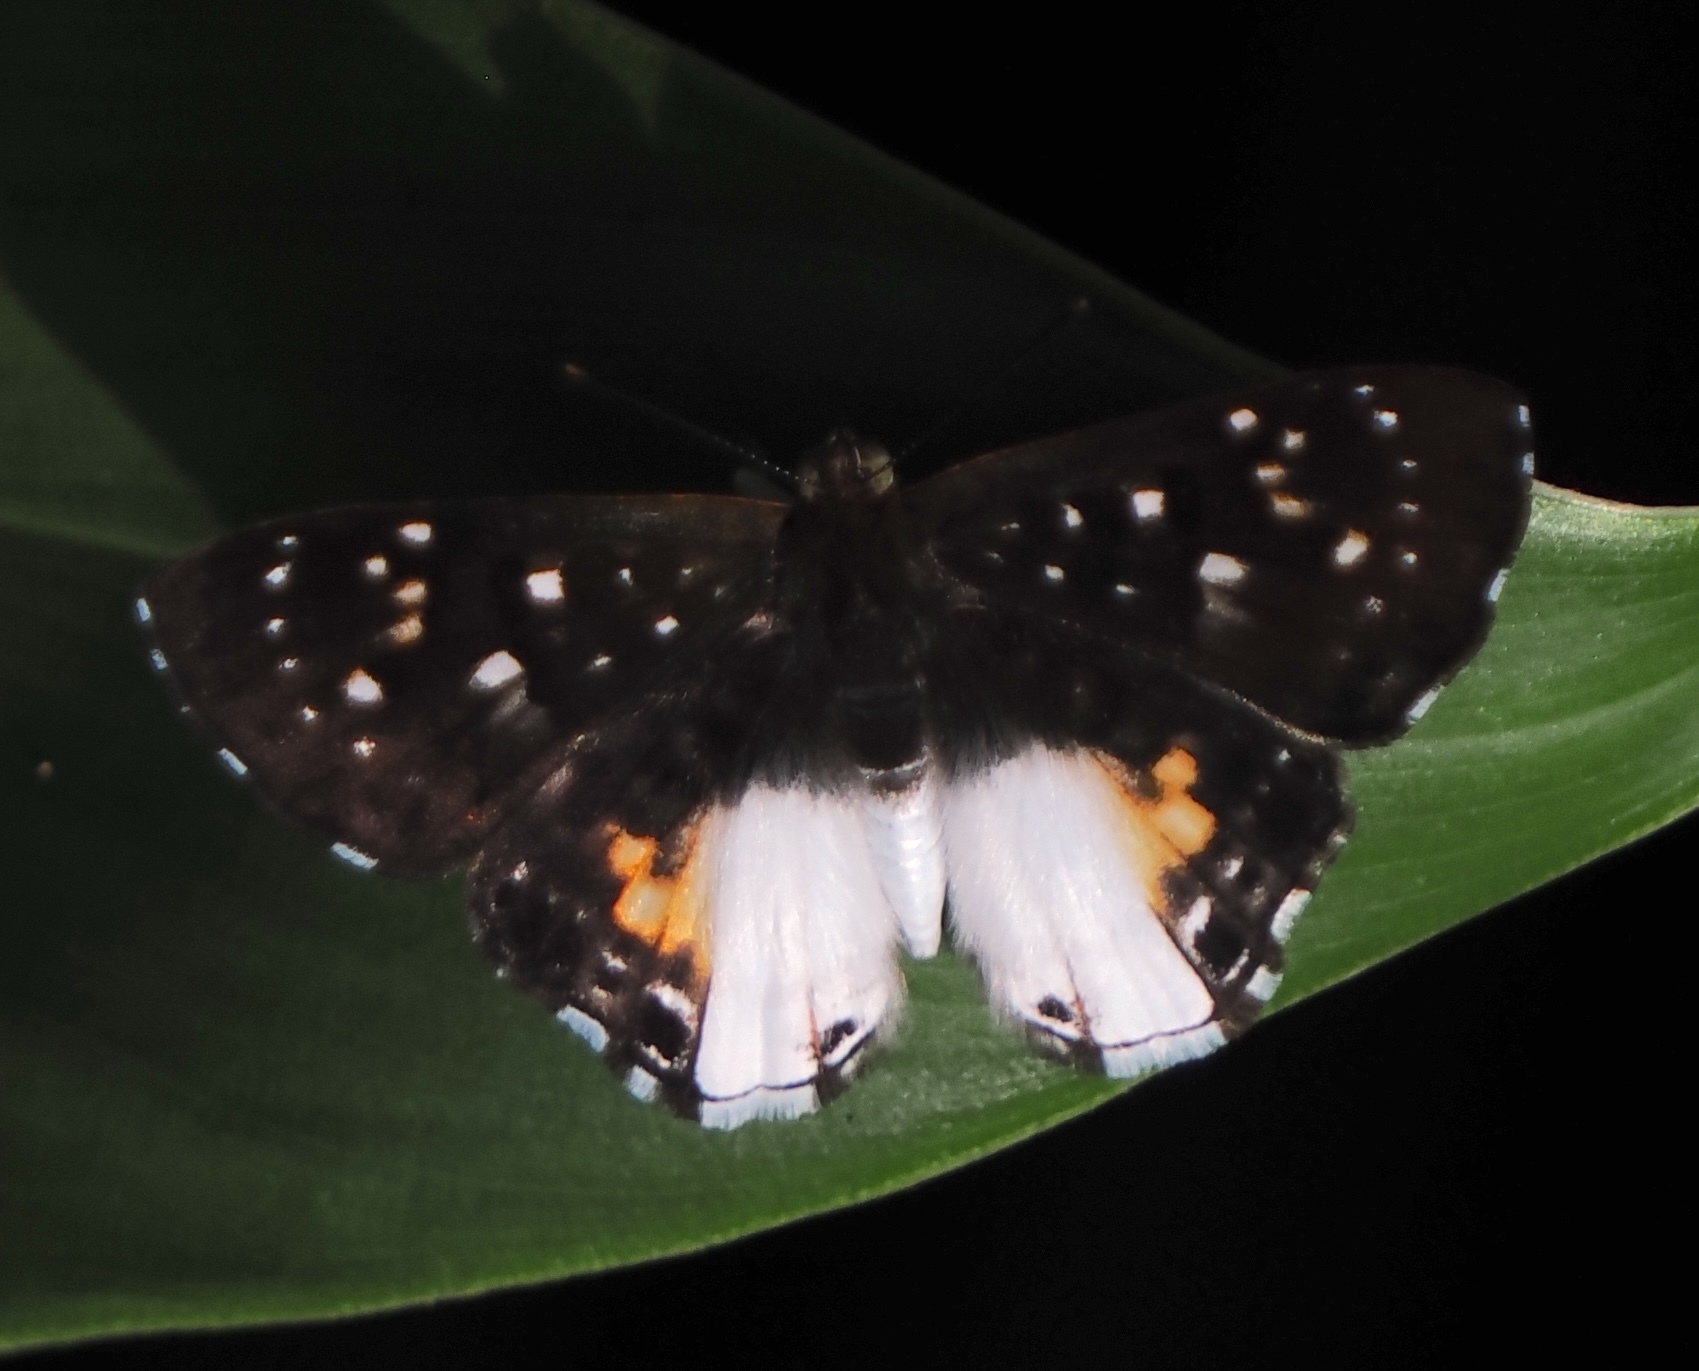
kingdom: Animalia
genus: Lemonias
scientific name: Lemonias zygia
